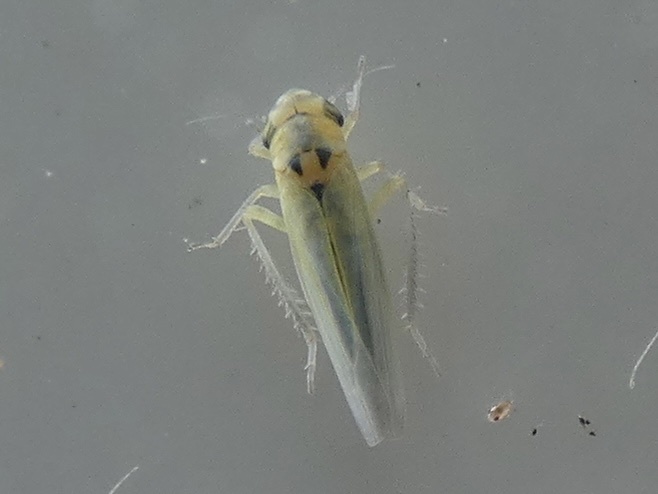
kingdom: Animalia
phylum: Arthropoda
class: Insecta
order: Hemiptera
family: Cicadellidae
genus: Zyginidia
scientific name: Zyginidia scutellaris
